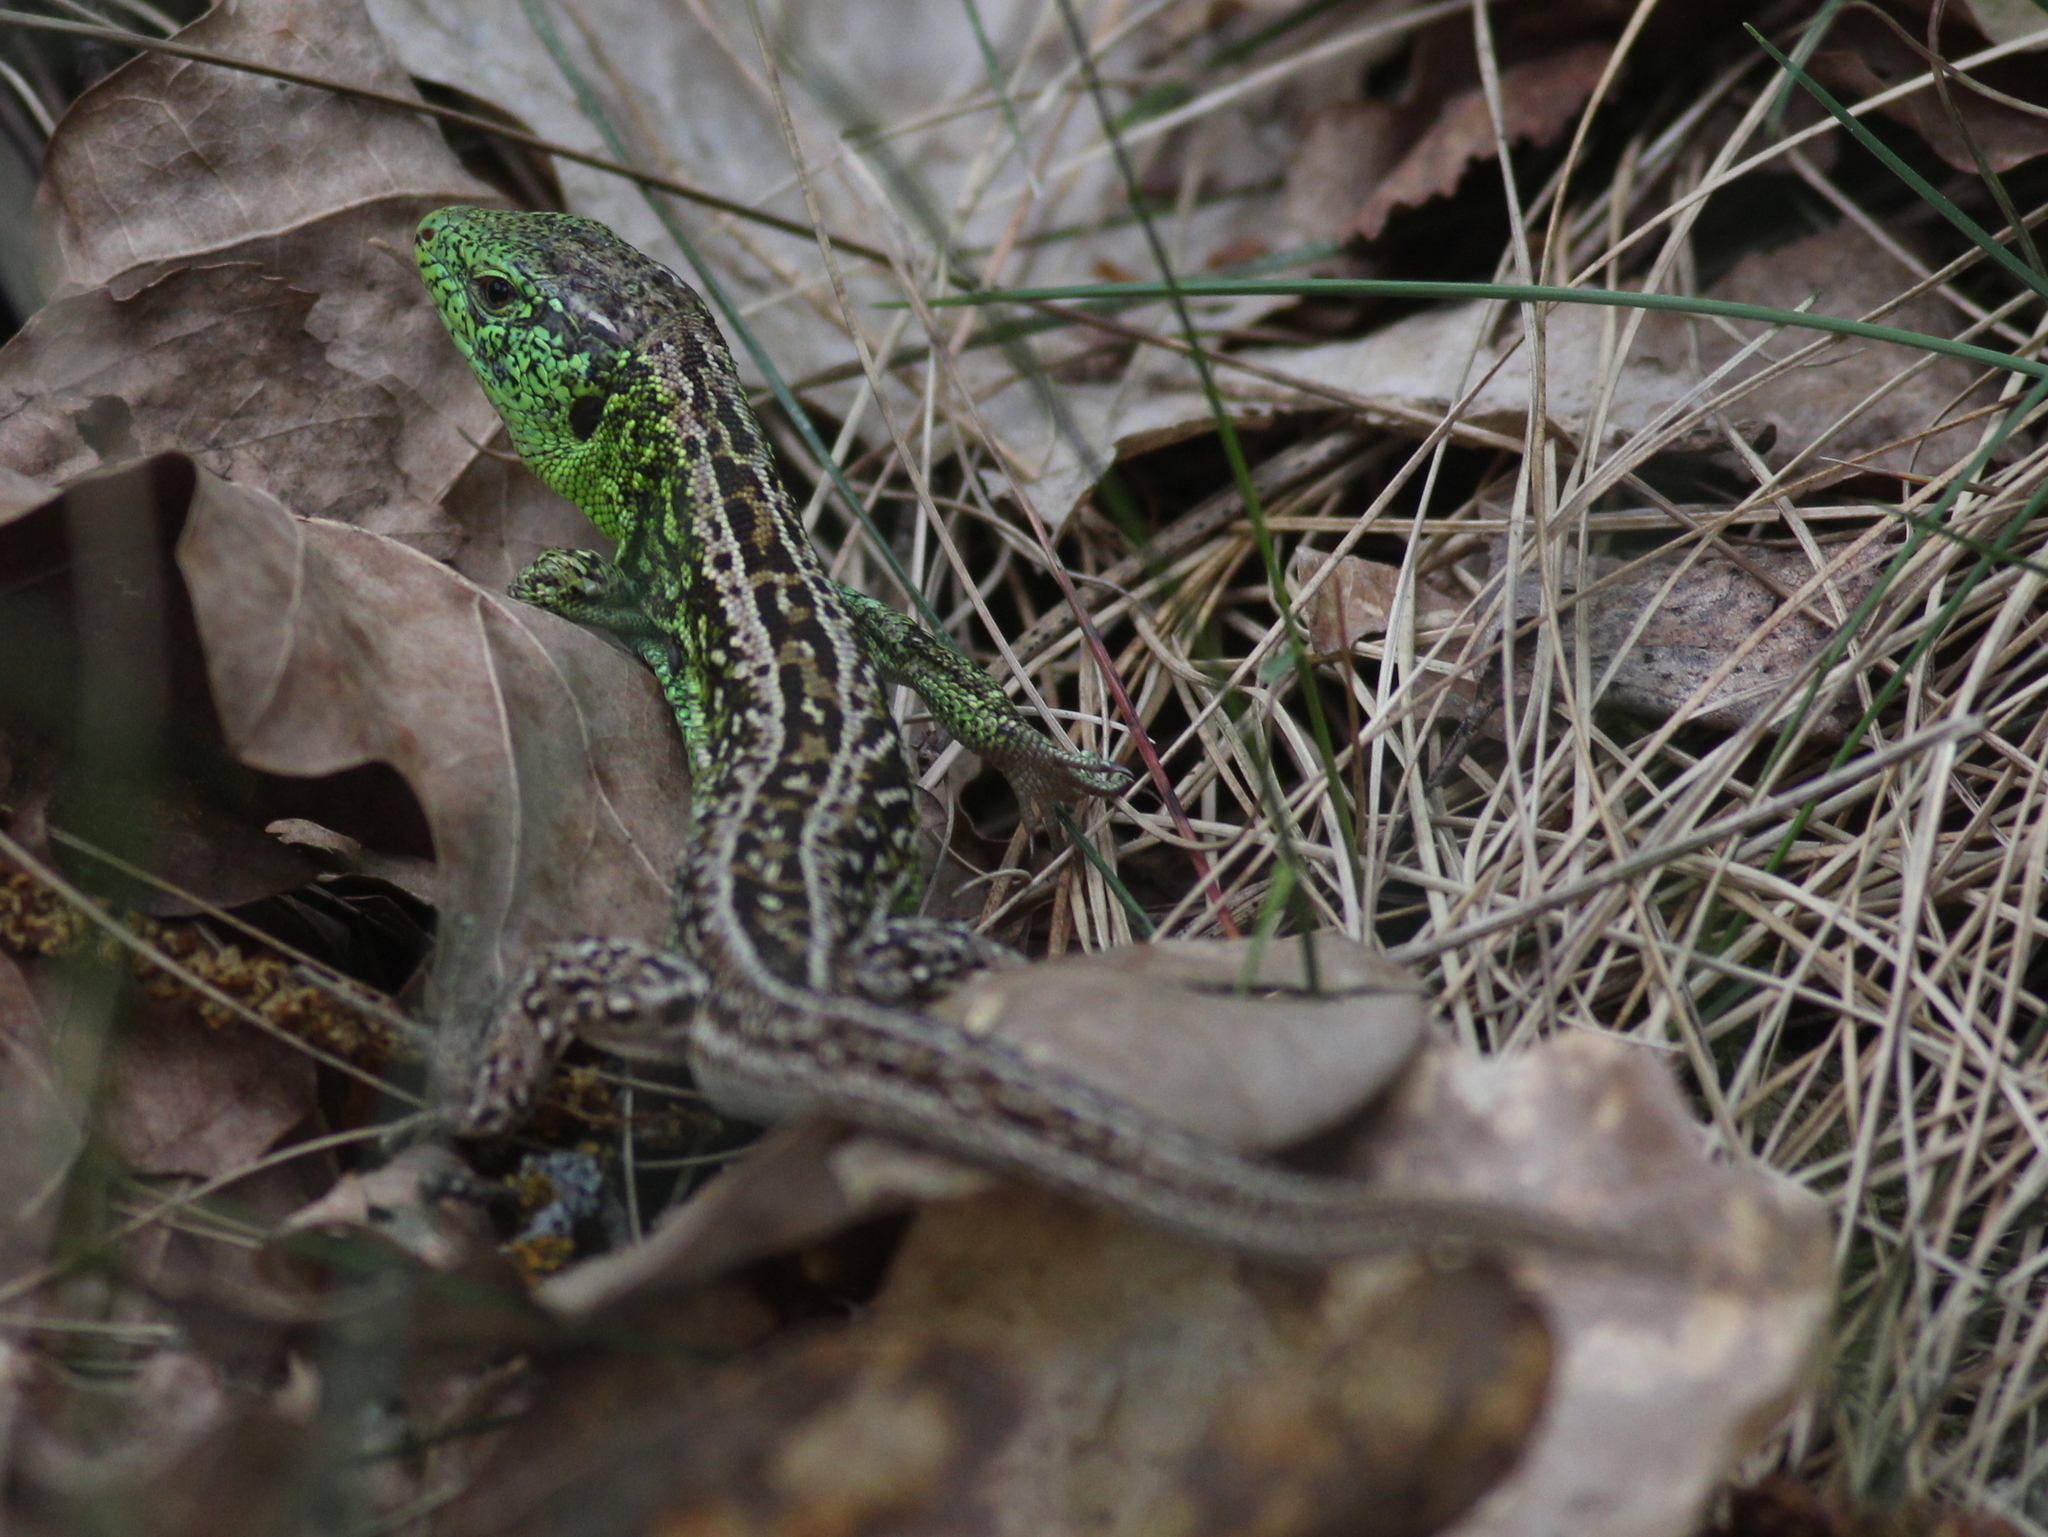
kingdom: Animalia
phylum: Chordata
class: Squamata
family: Lacertidae
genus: Lacerta
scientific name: Lacerta agilis
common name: Sand lizard
